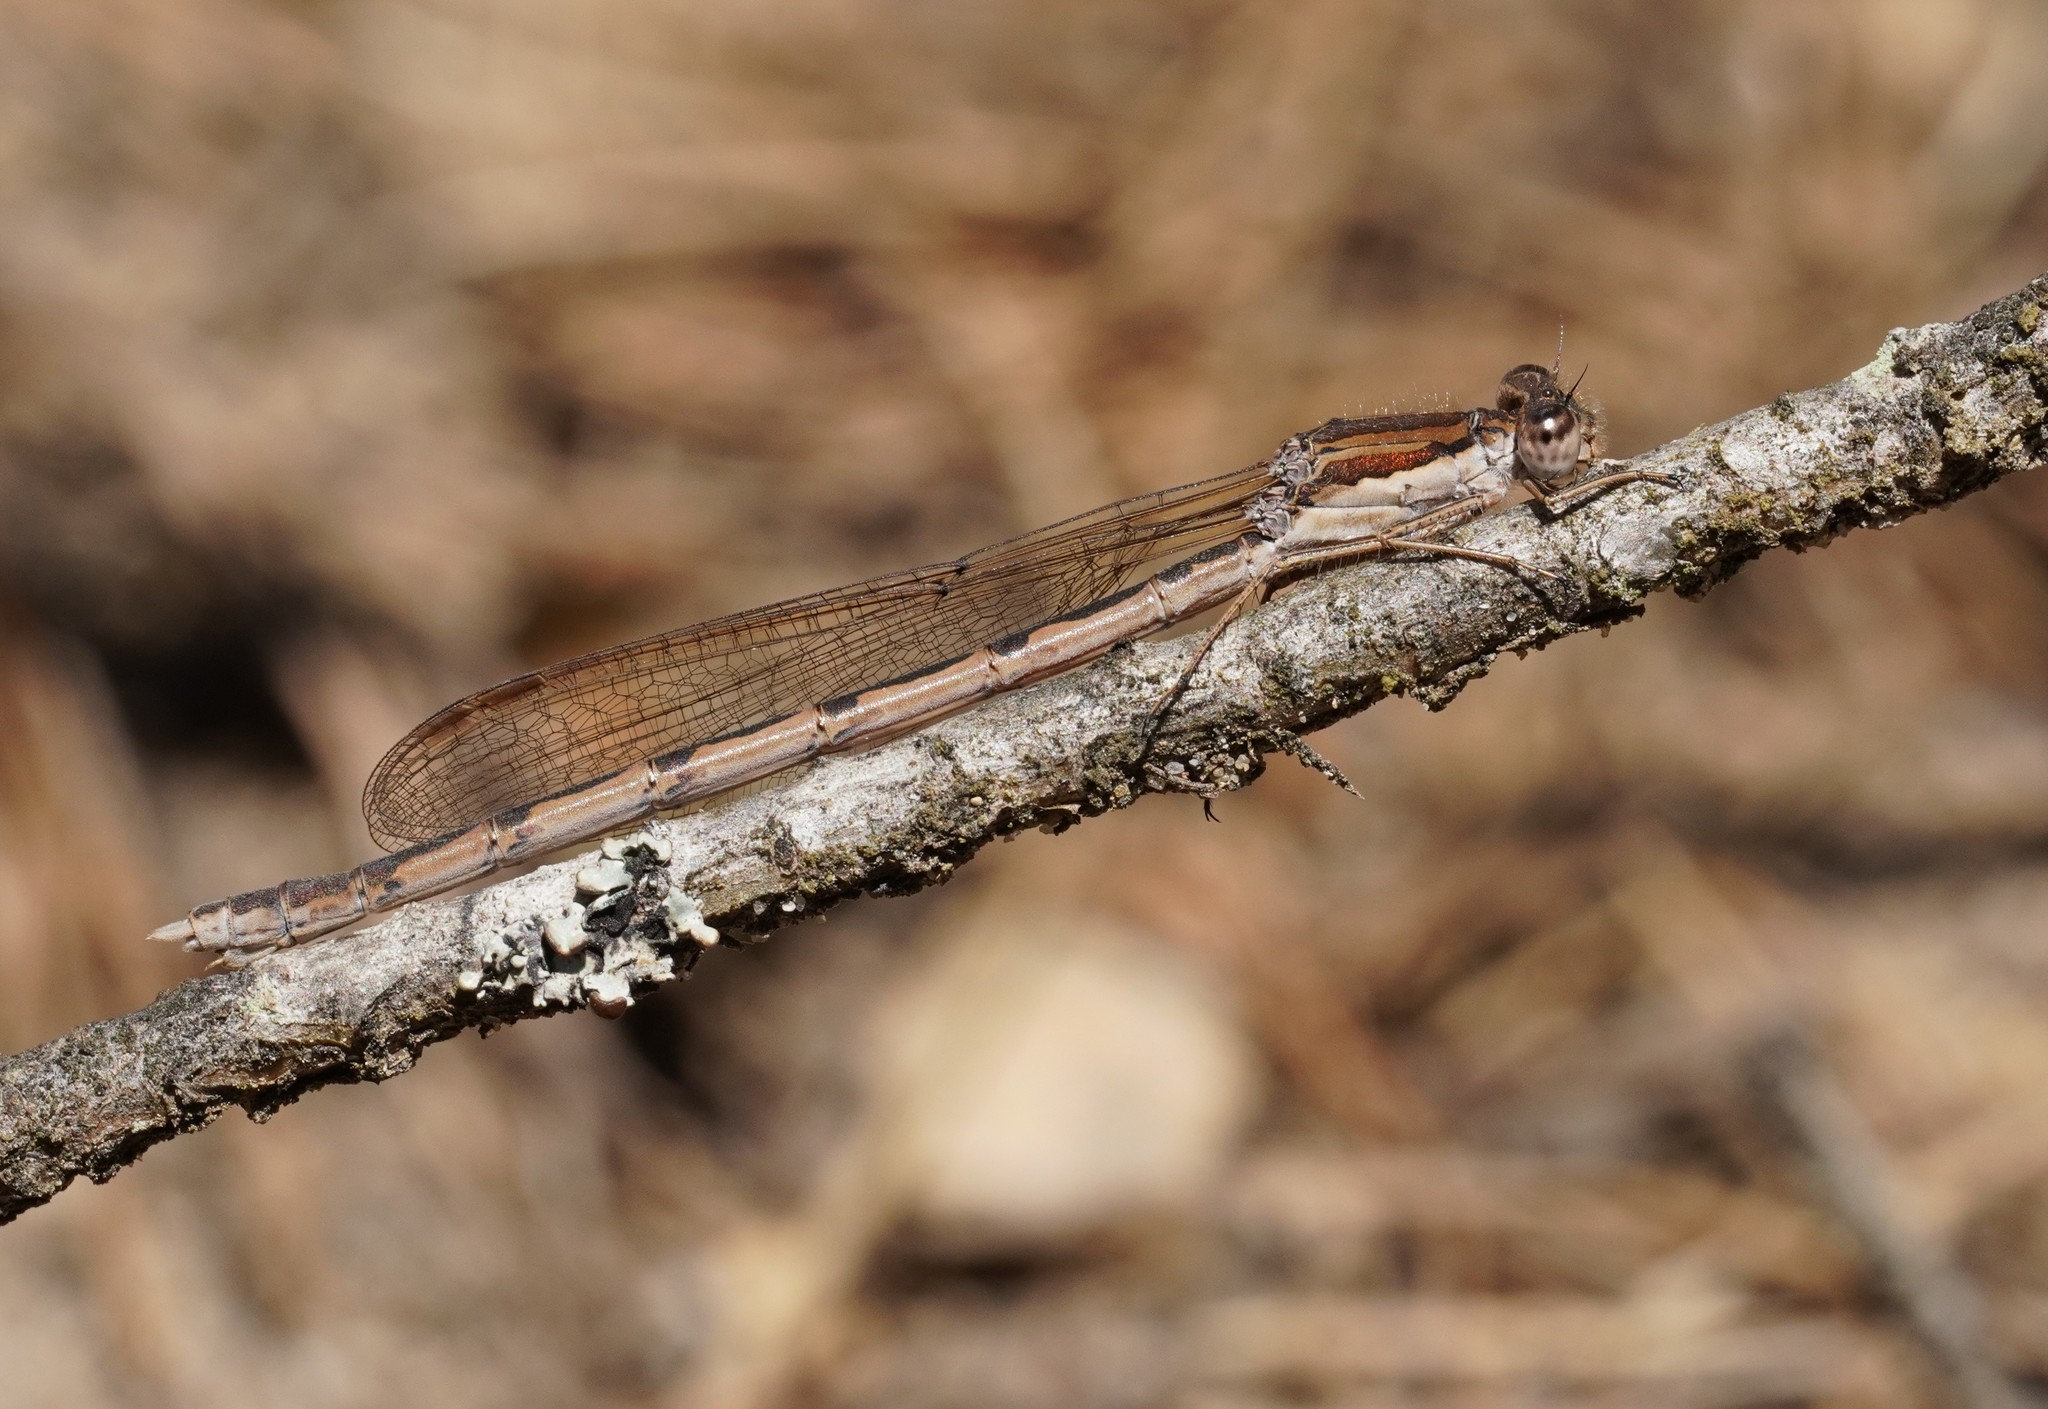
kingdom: Animalia
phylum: Arthropoda
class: Insecta
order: Odonata
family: Lestidae
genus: Sympecma
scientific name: Sympecma fusca
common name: Common winter damsel
